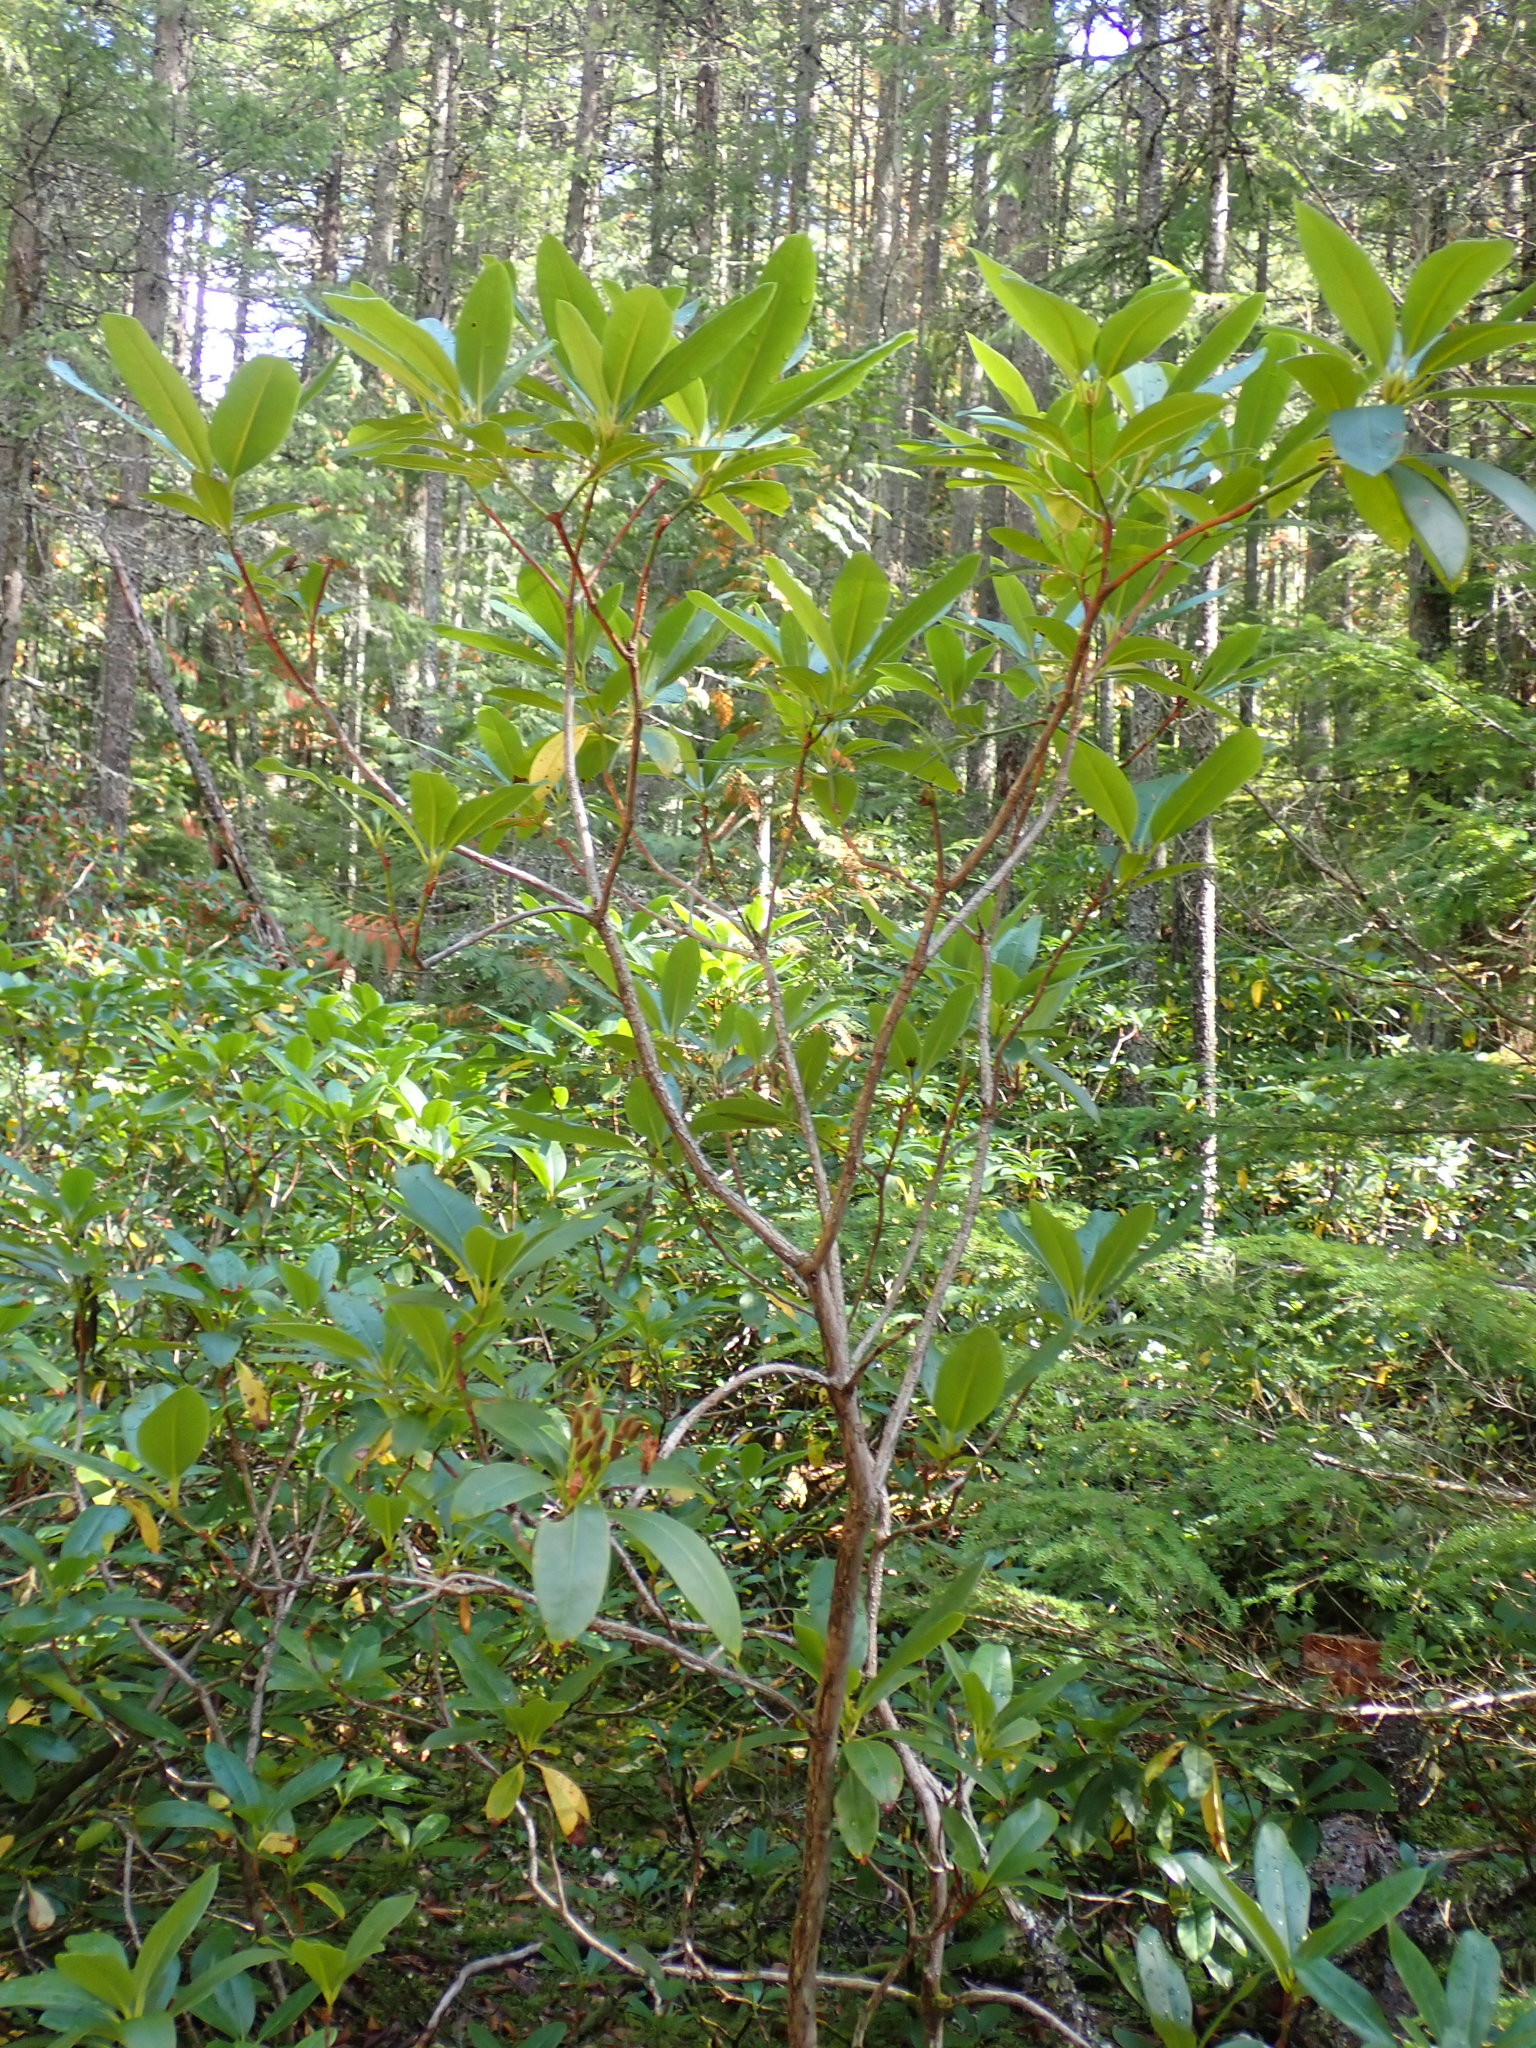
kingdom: Plantae
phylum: Tracheophyta
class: Magnoliopsida
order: Ericales
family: Ericaceae
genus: Rhododendron
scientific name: Rhododendron macrophyllum
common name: California rose bay
